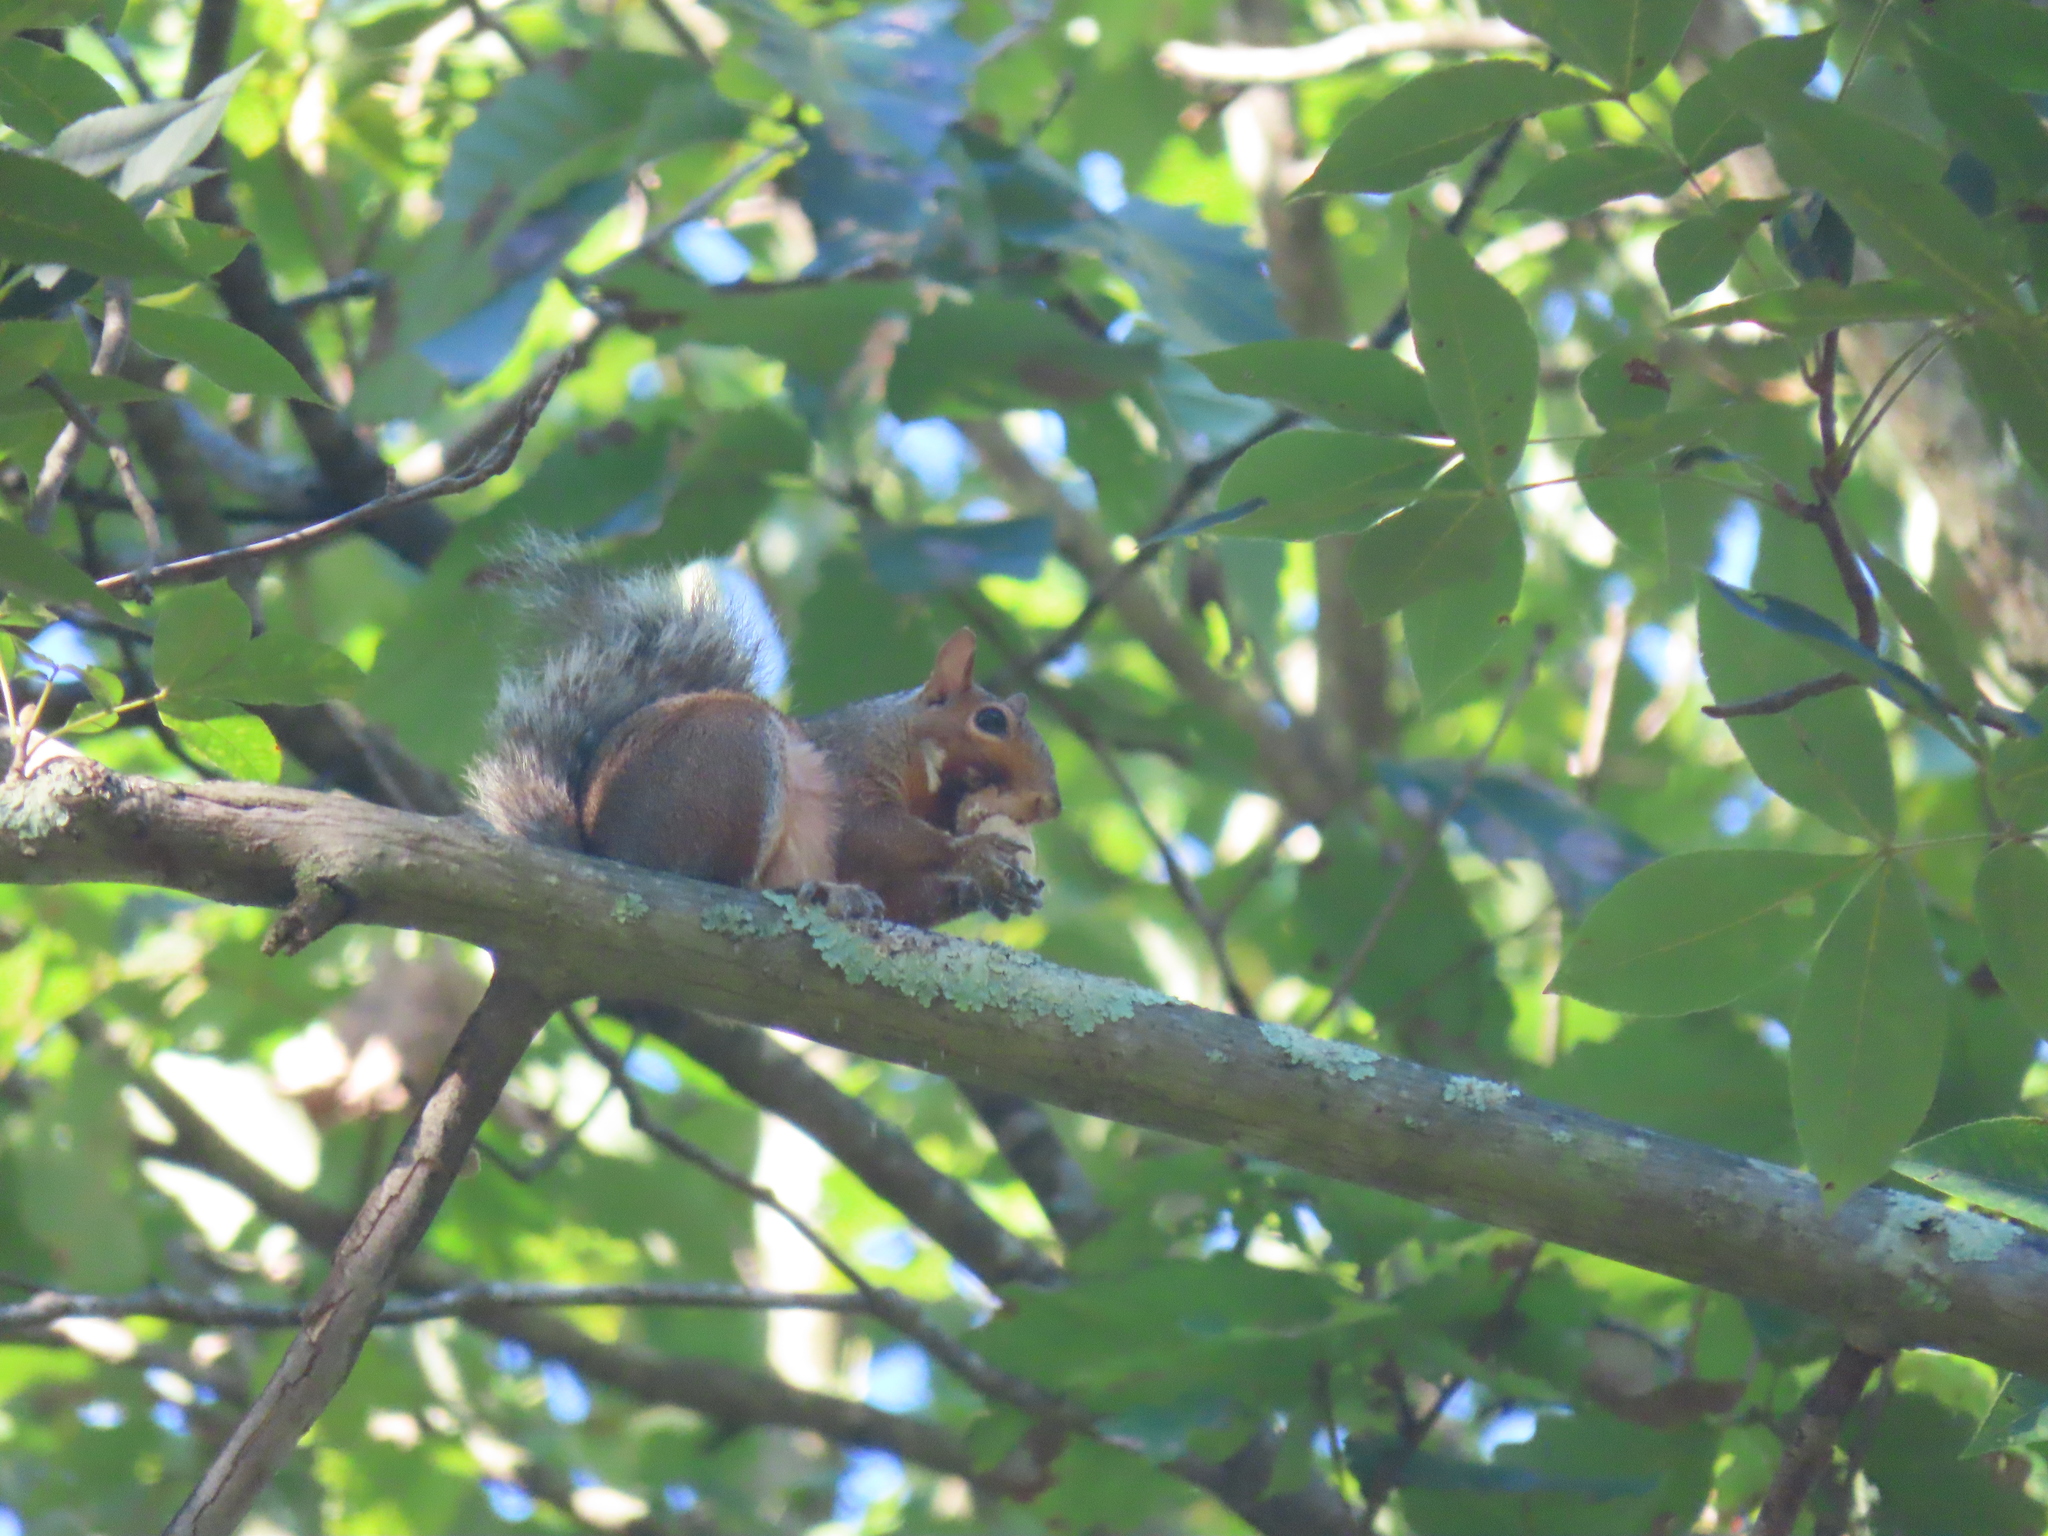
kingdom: Animalia
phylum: Chordata
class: Mammalia
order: Rodentia
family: Sciuridae
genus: Sciurus
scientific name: Sciurus carolinensis
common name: Eastern gray squirrel
